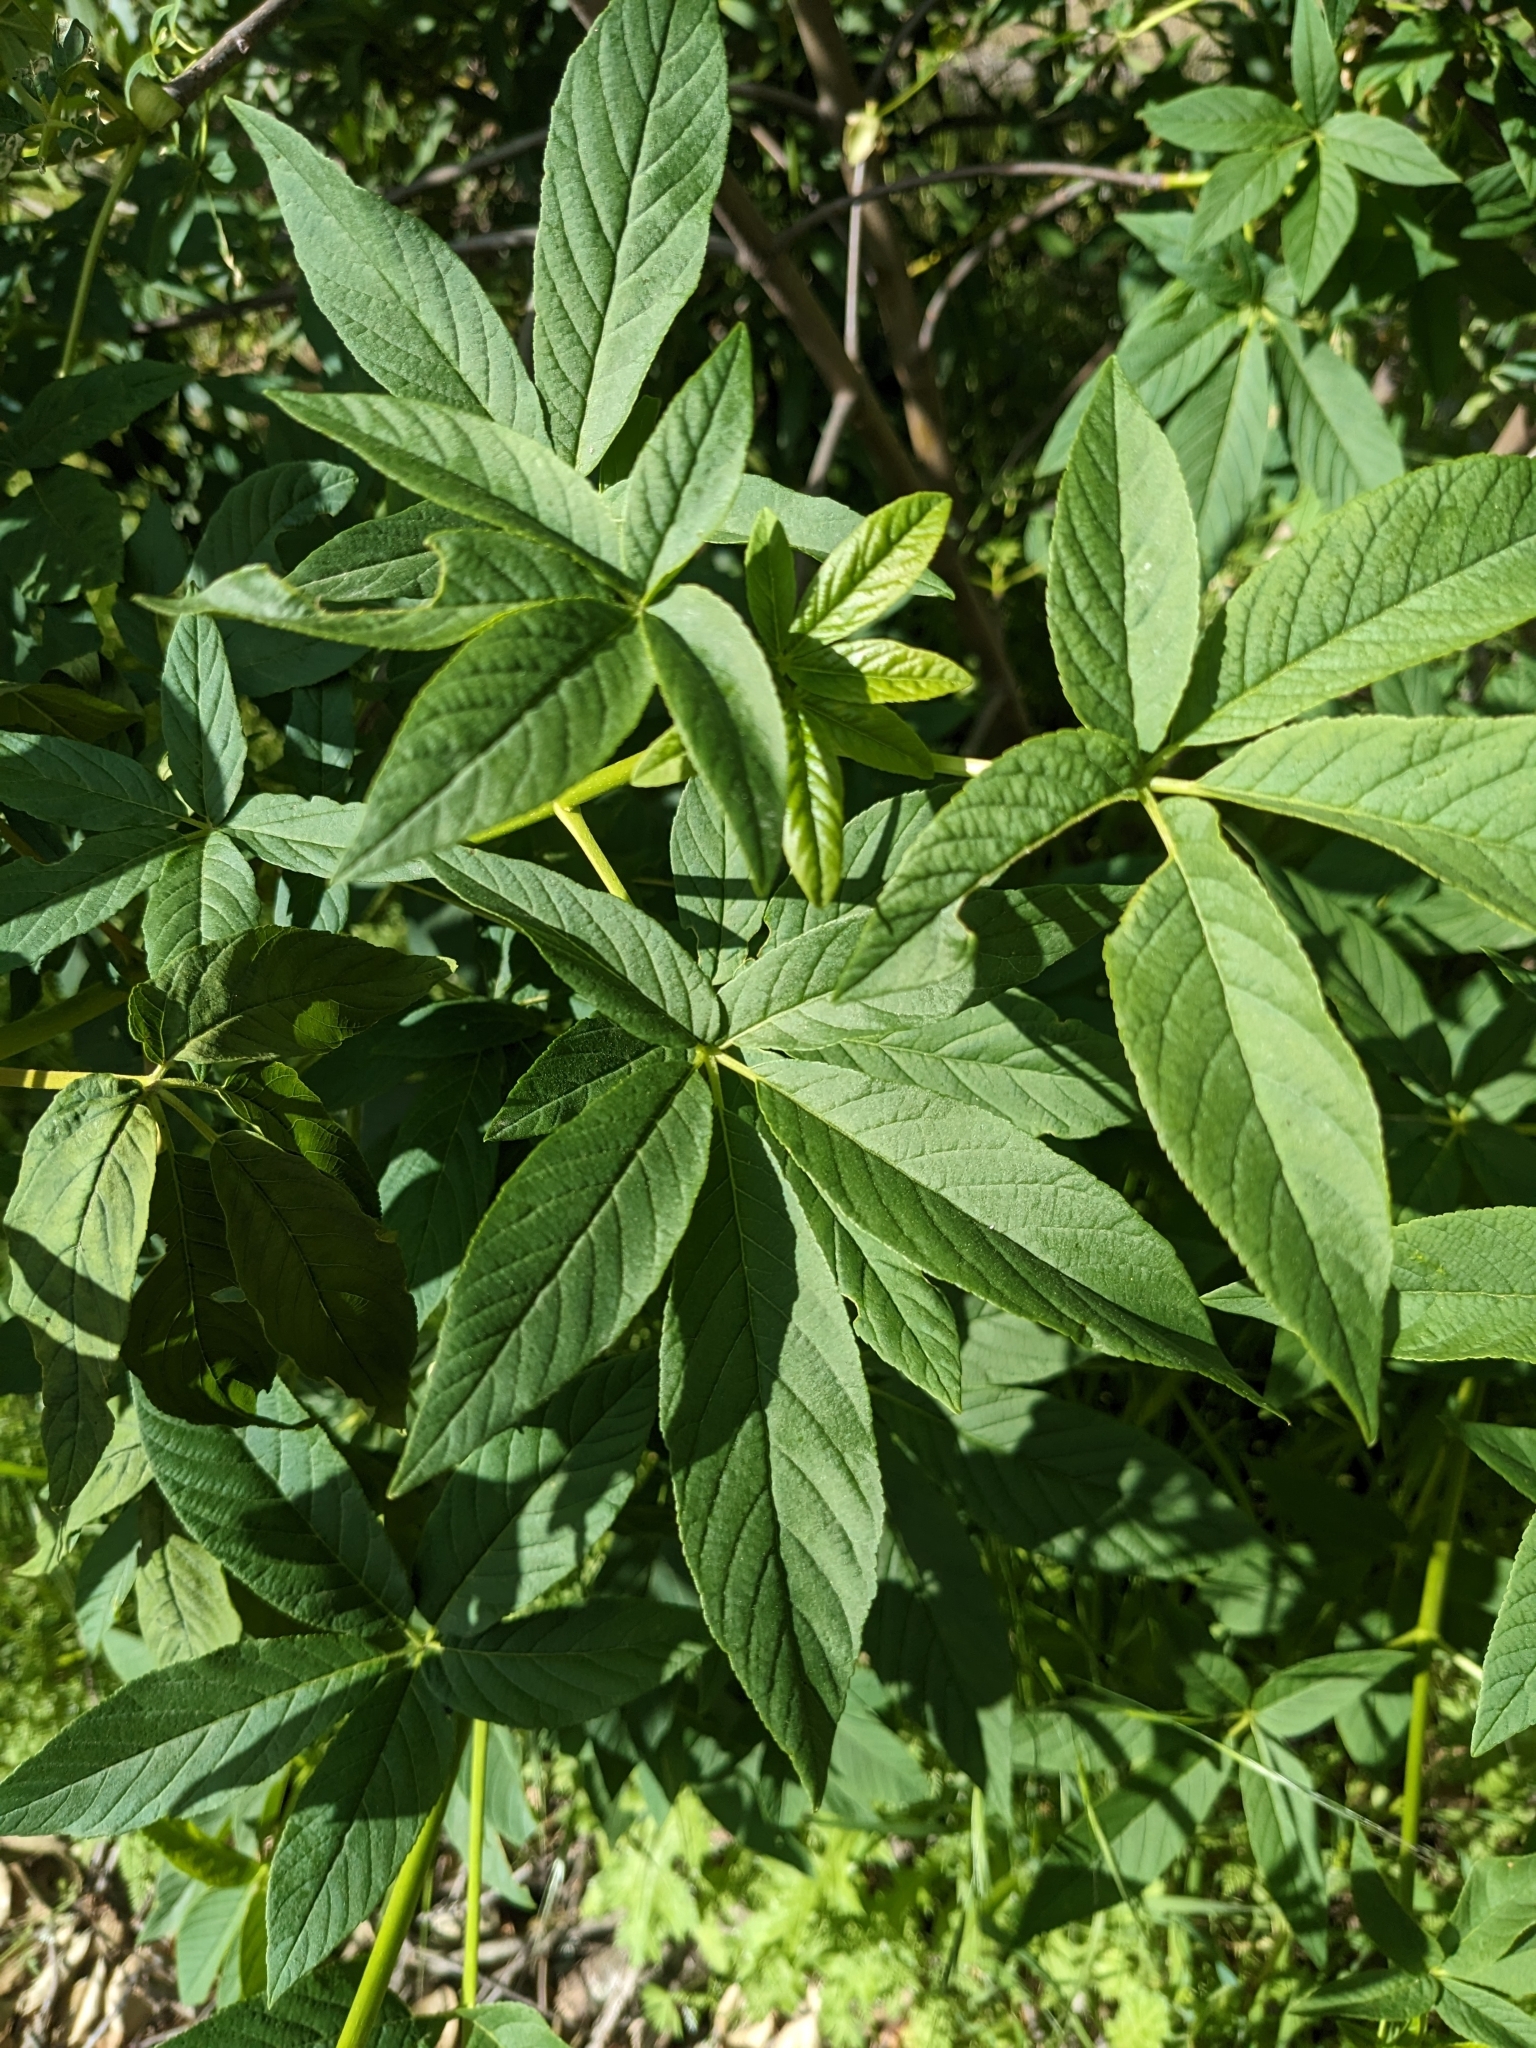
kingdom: Plantae
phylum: Tracheophyta
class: Magnoliopsida
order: Sapindales
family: Sapindaceae
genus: Aesculus
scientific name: Aesculus californica
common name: California buckeye
